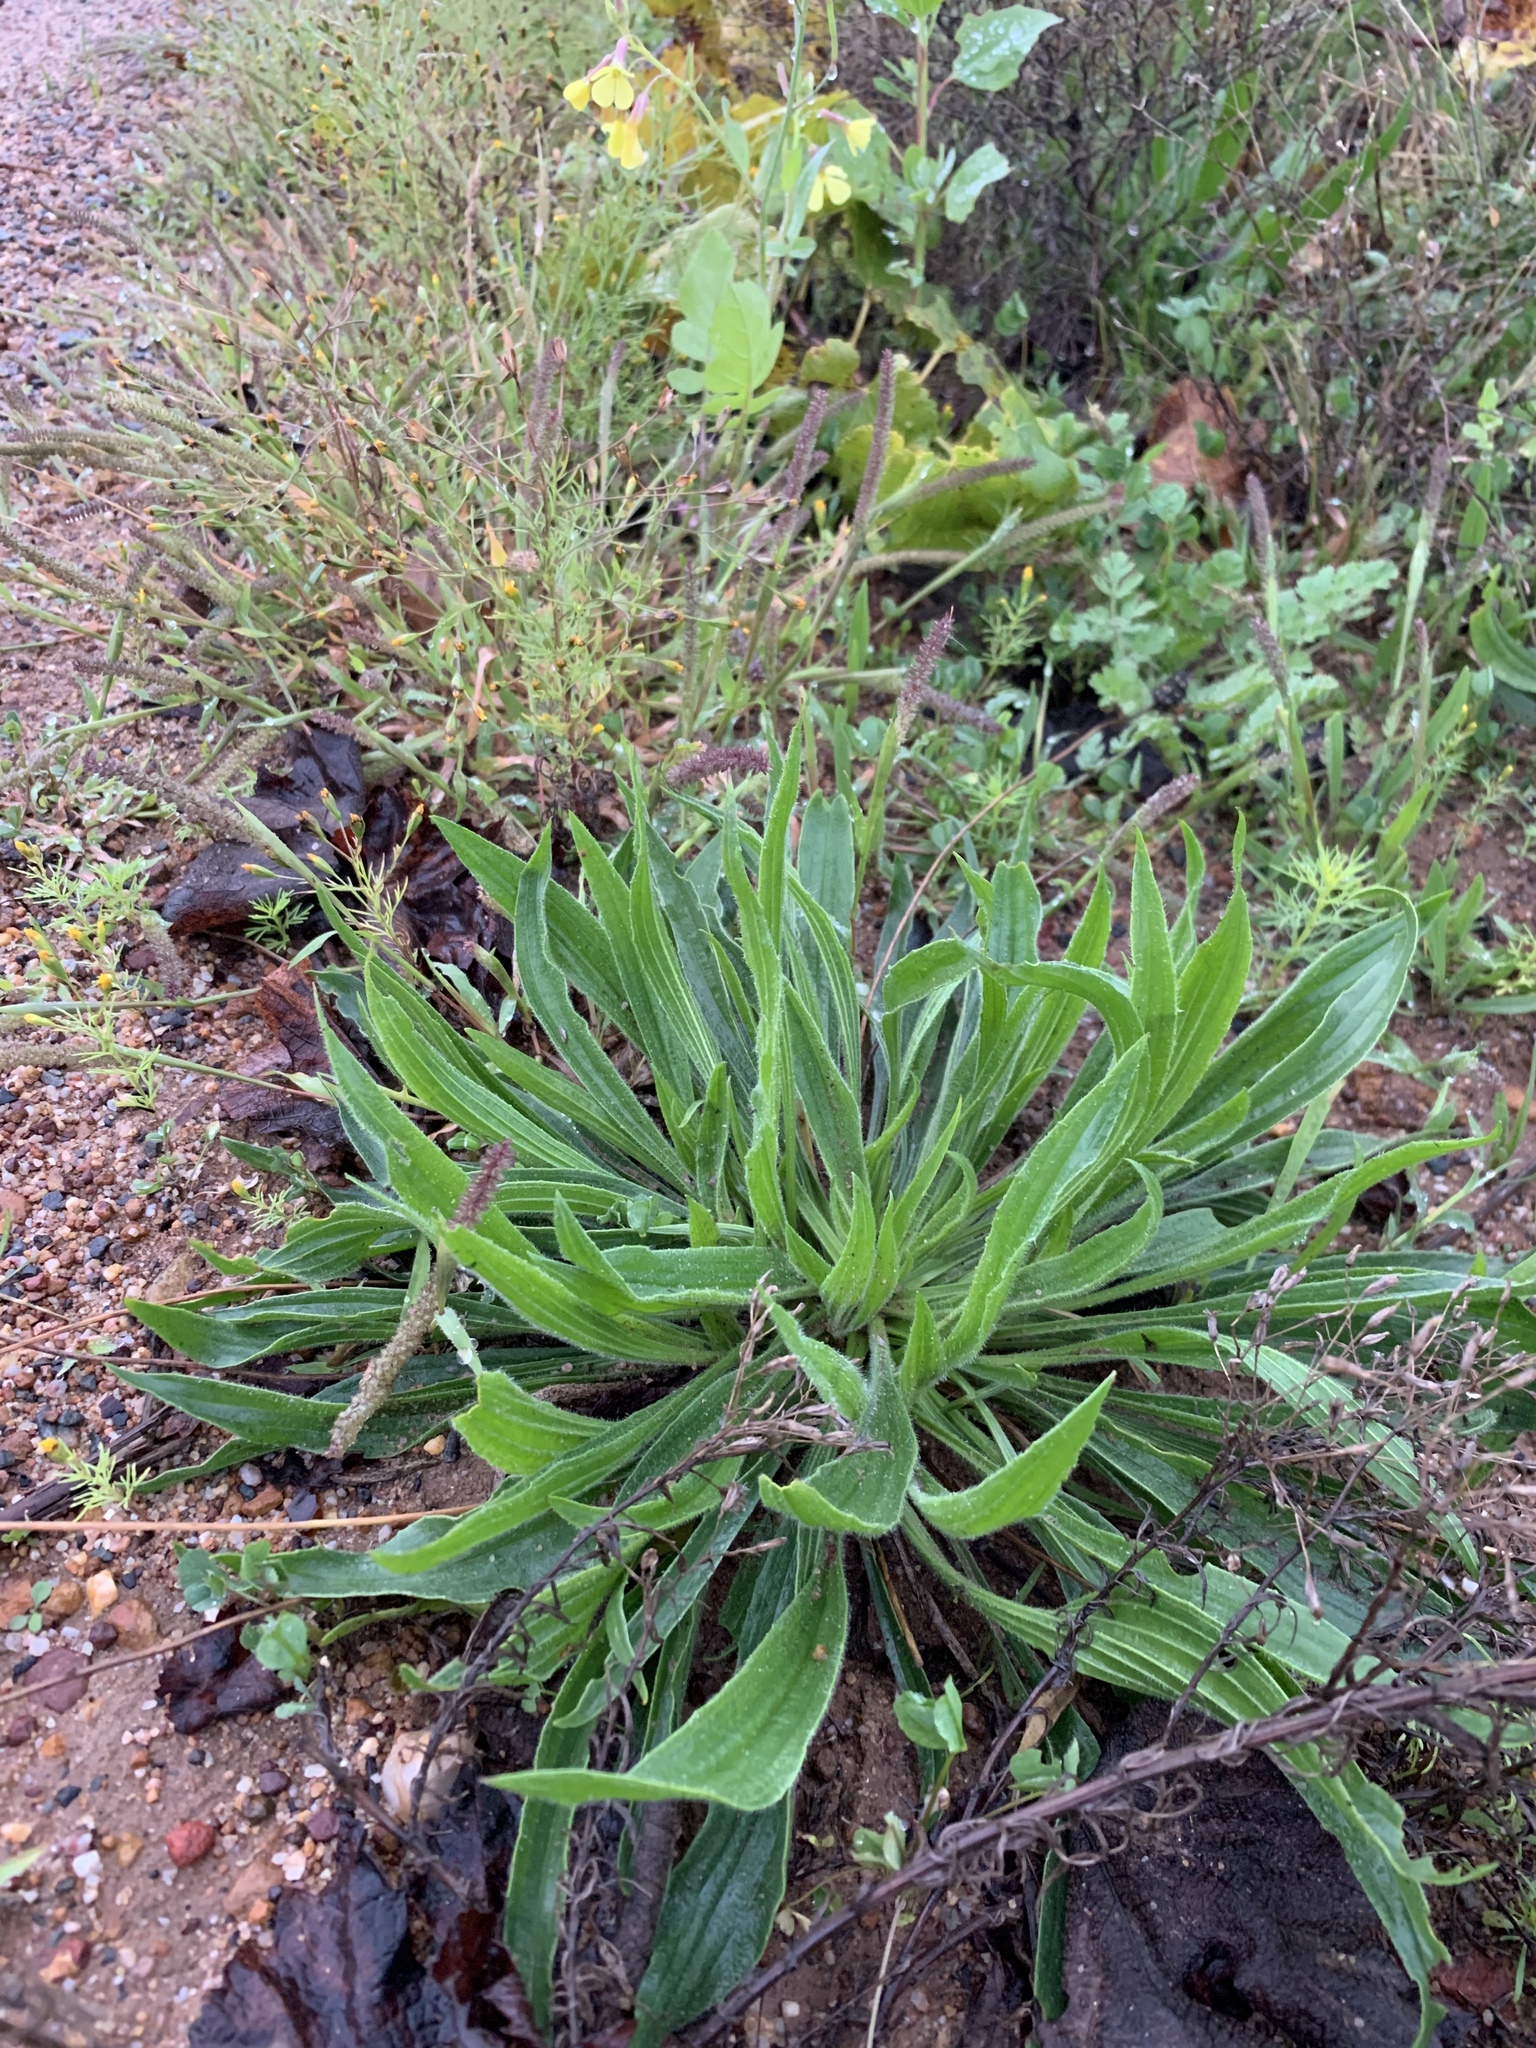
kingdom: Plantae
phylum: Tracheophyta
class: Magnoliopsida
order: Lamiales
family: Plantaginaceae
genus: Plantago
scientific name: Plantago lanceolata
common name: Ribwort plantain
